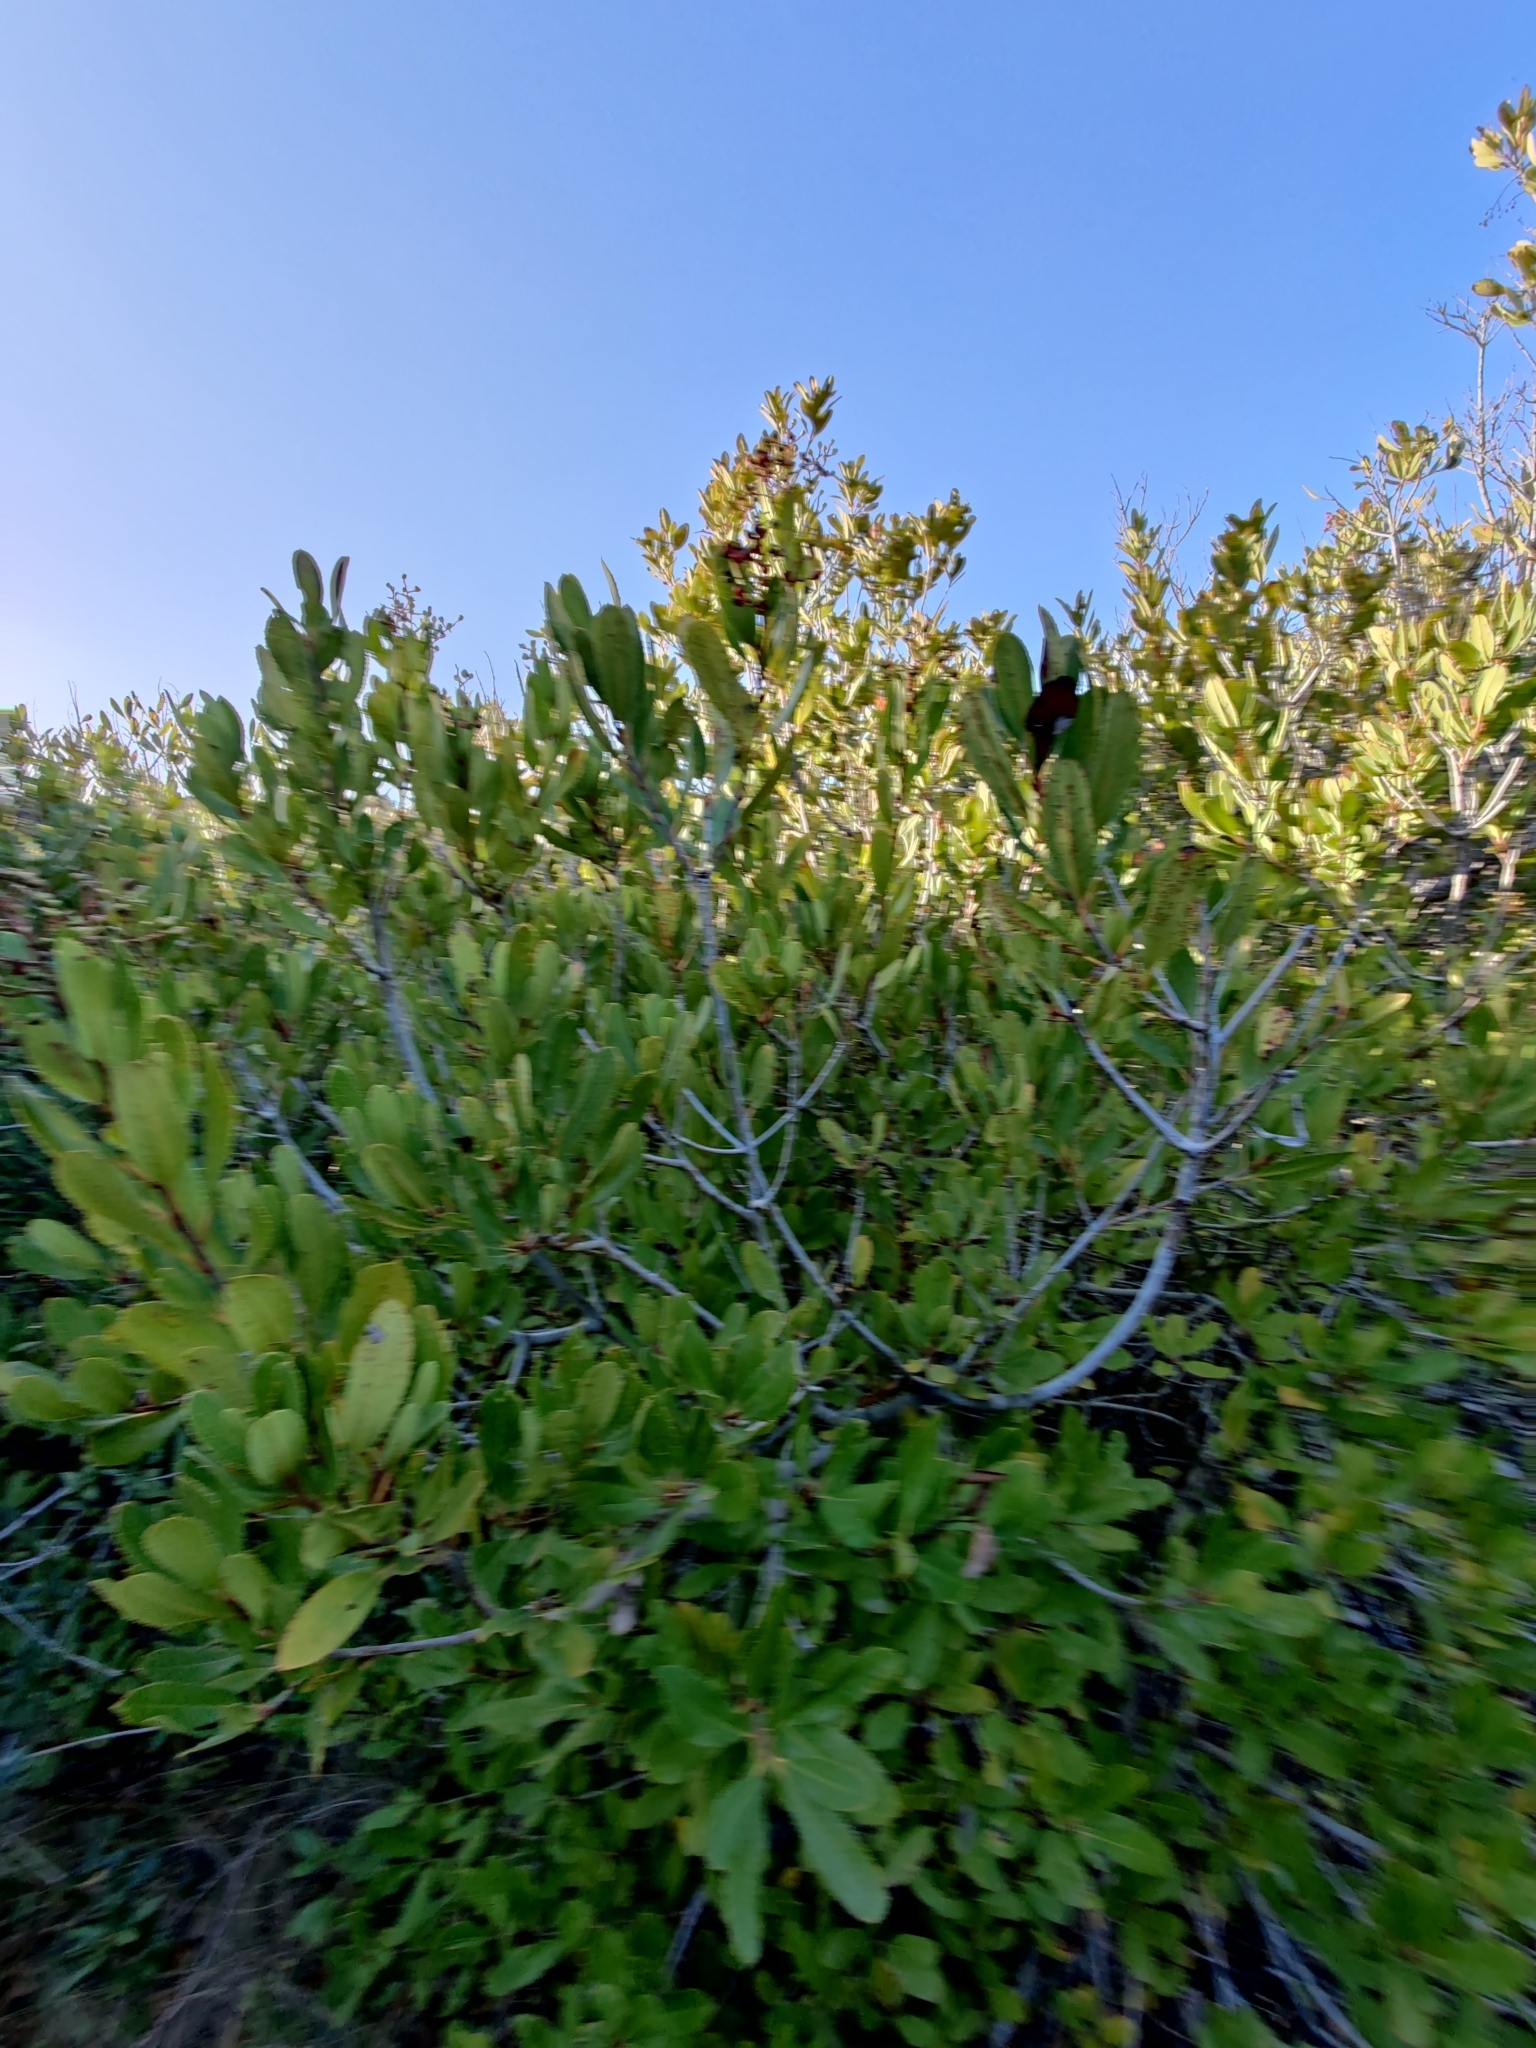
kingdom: Plantae
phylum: Tracheophyta
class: Magnoliopsida
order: Rosales
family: Rosaceae
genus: Heteromeles
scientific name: Heteromeles arbutifolia
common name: California-holly
